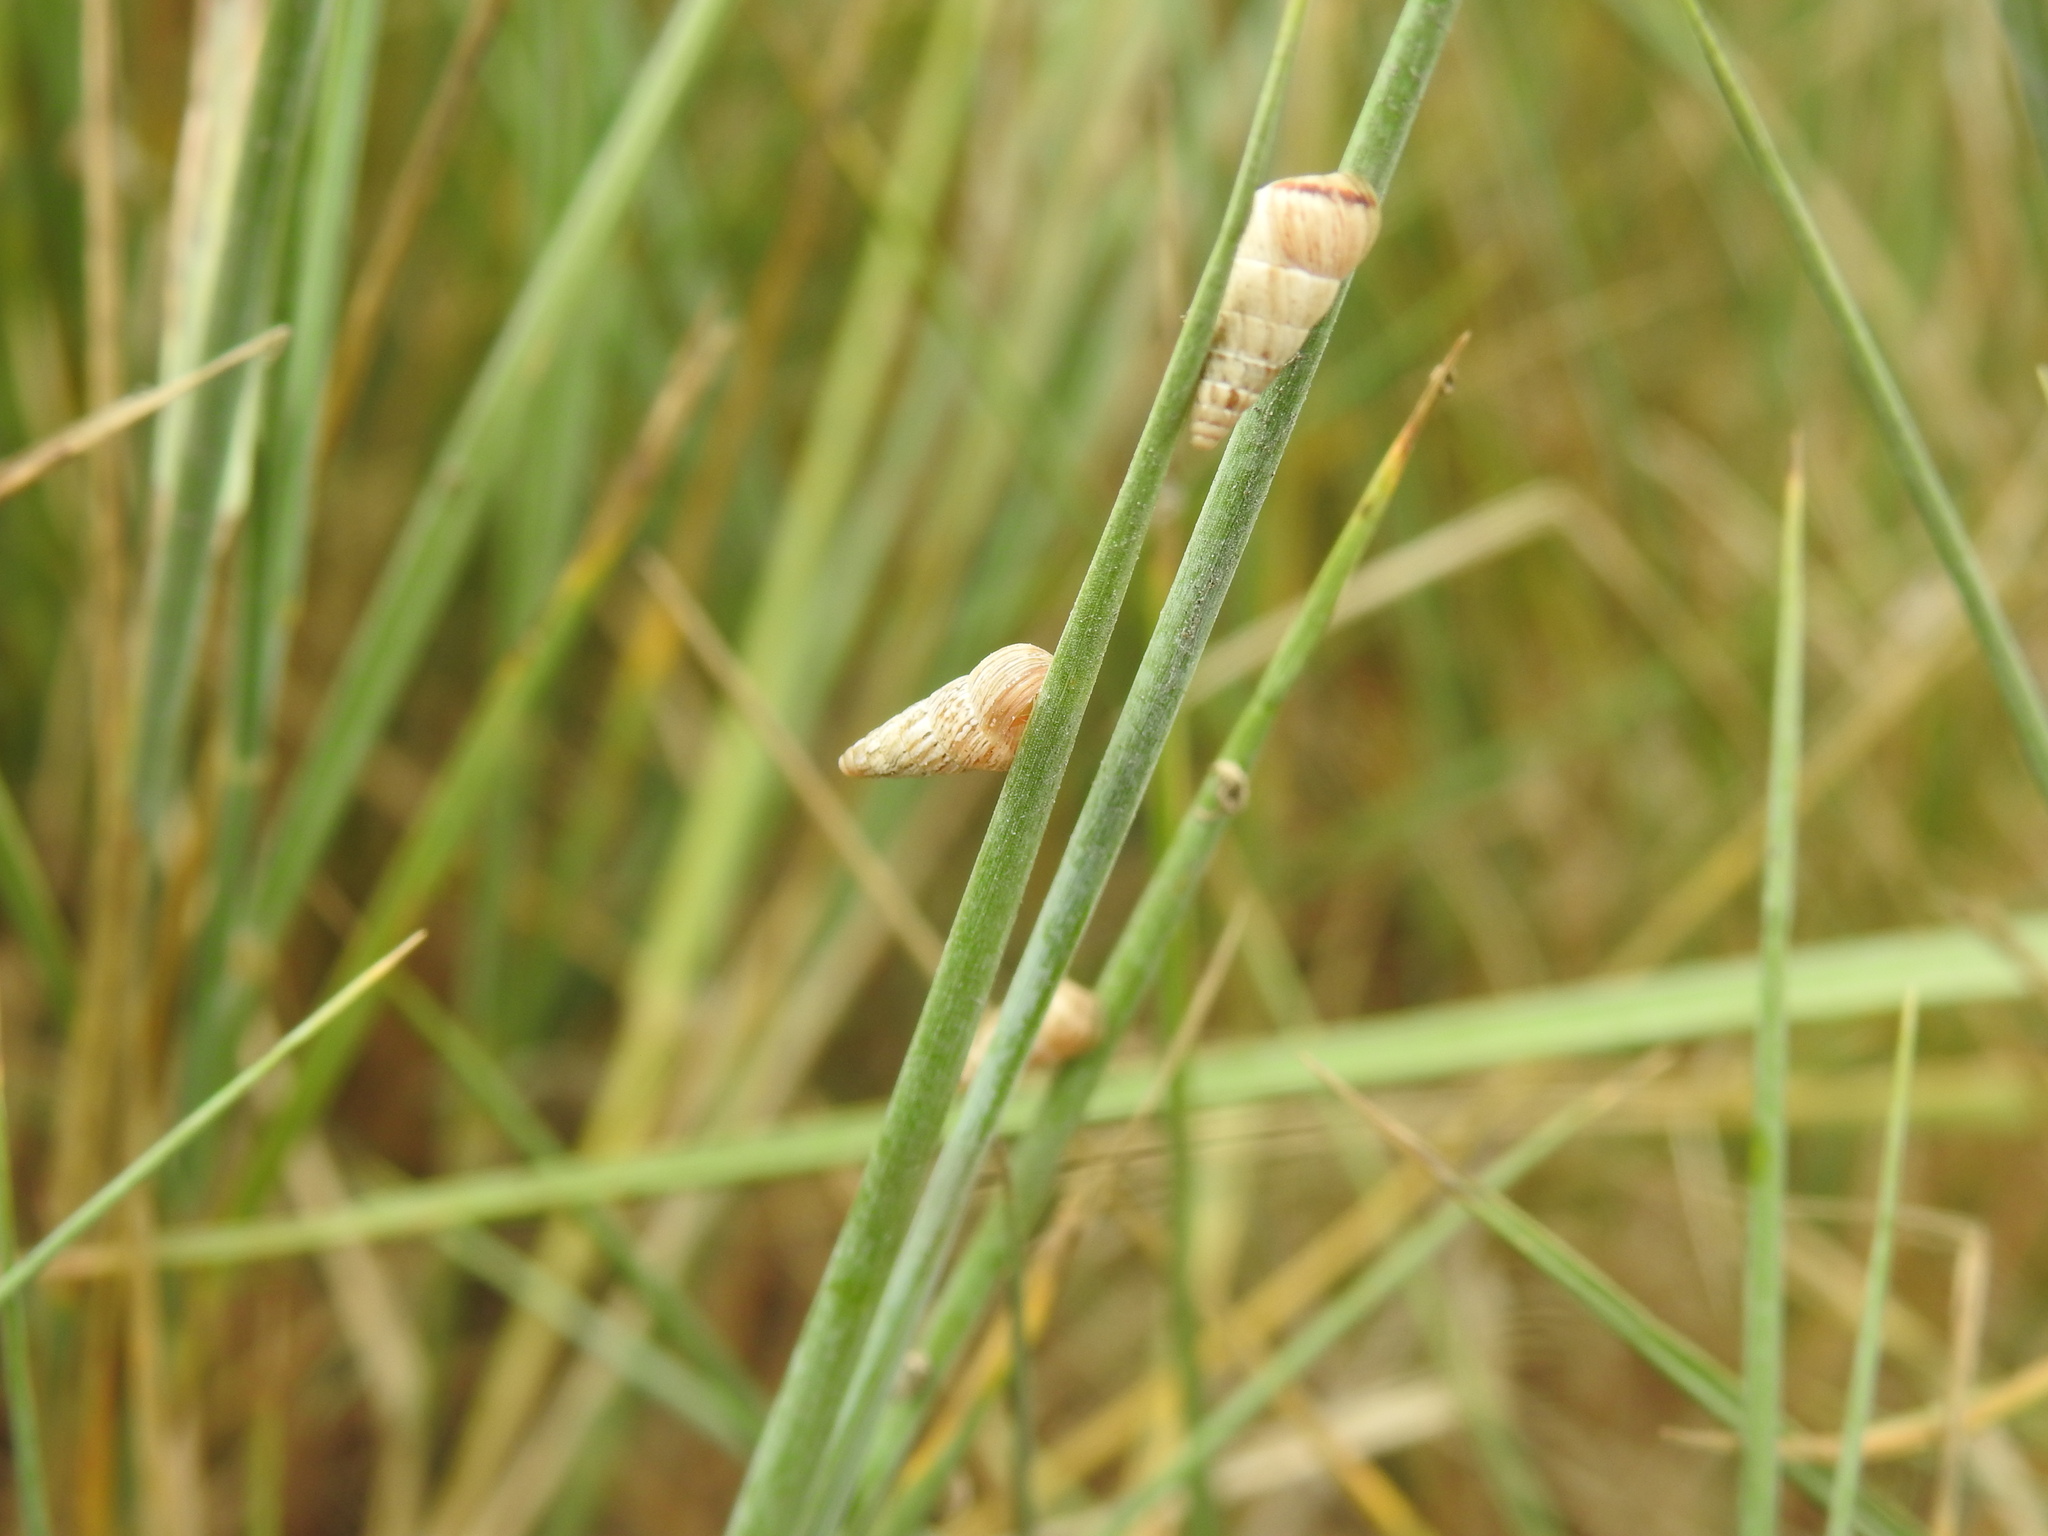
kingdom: Animalia
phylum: Mollusca
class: Gastropoda
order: Stylommatophora
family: Geomitridae
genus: Cochlicella
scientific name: Cochlicella acuta
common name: Pointed snail
